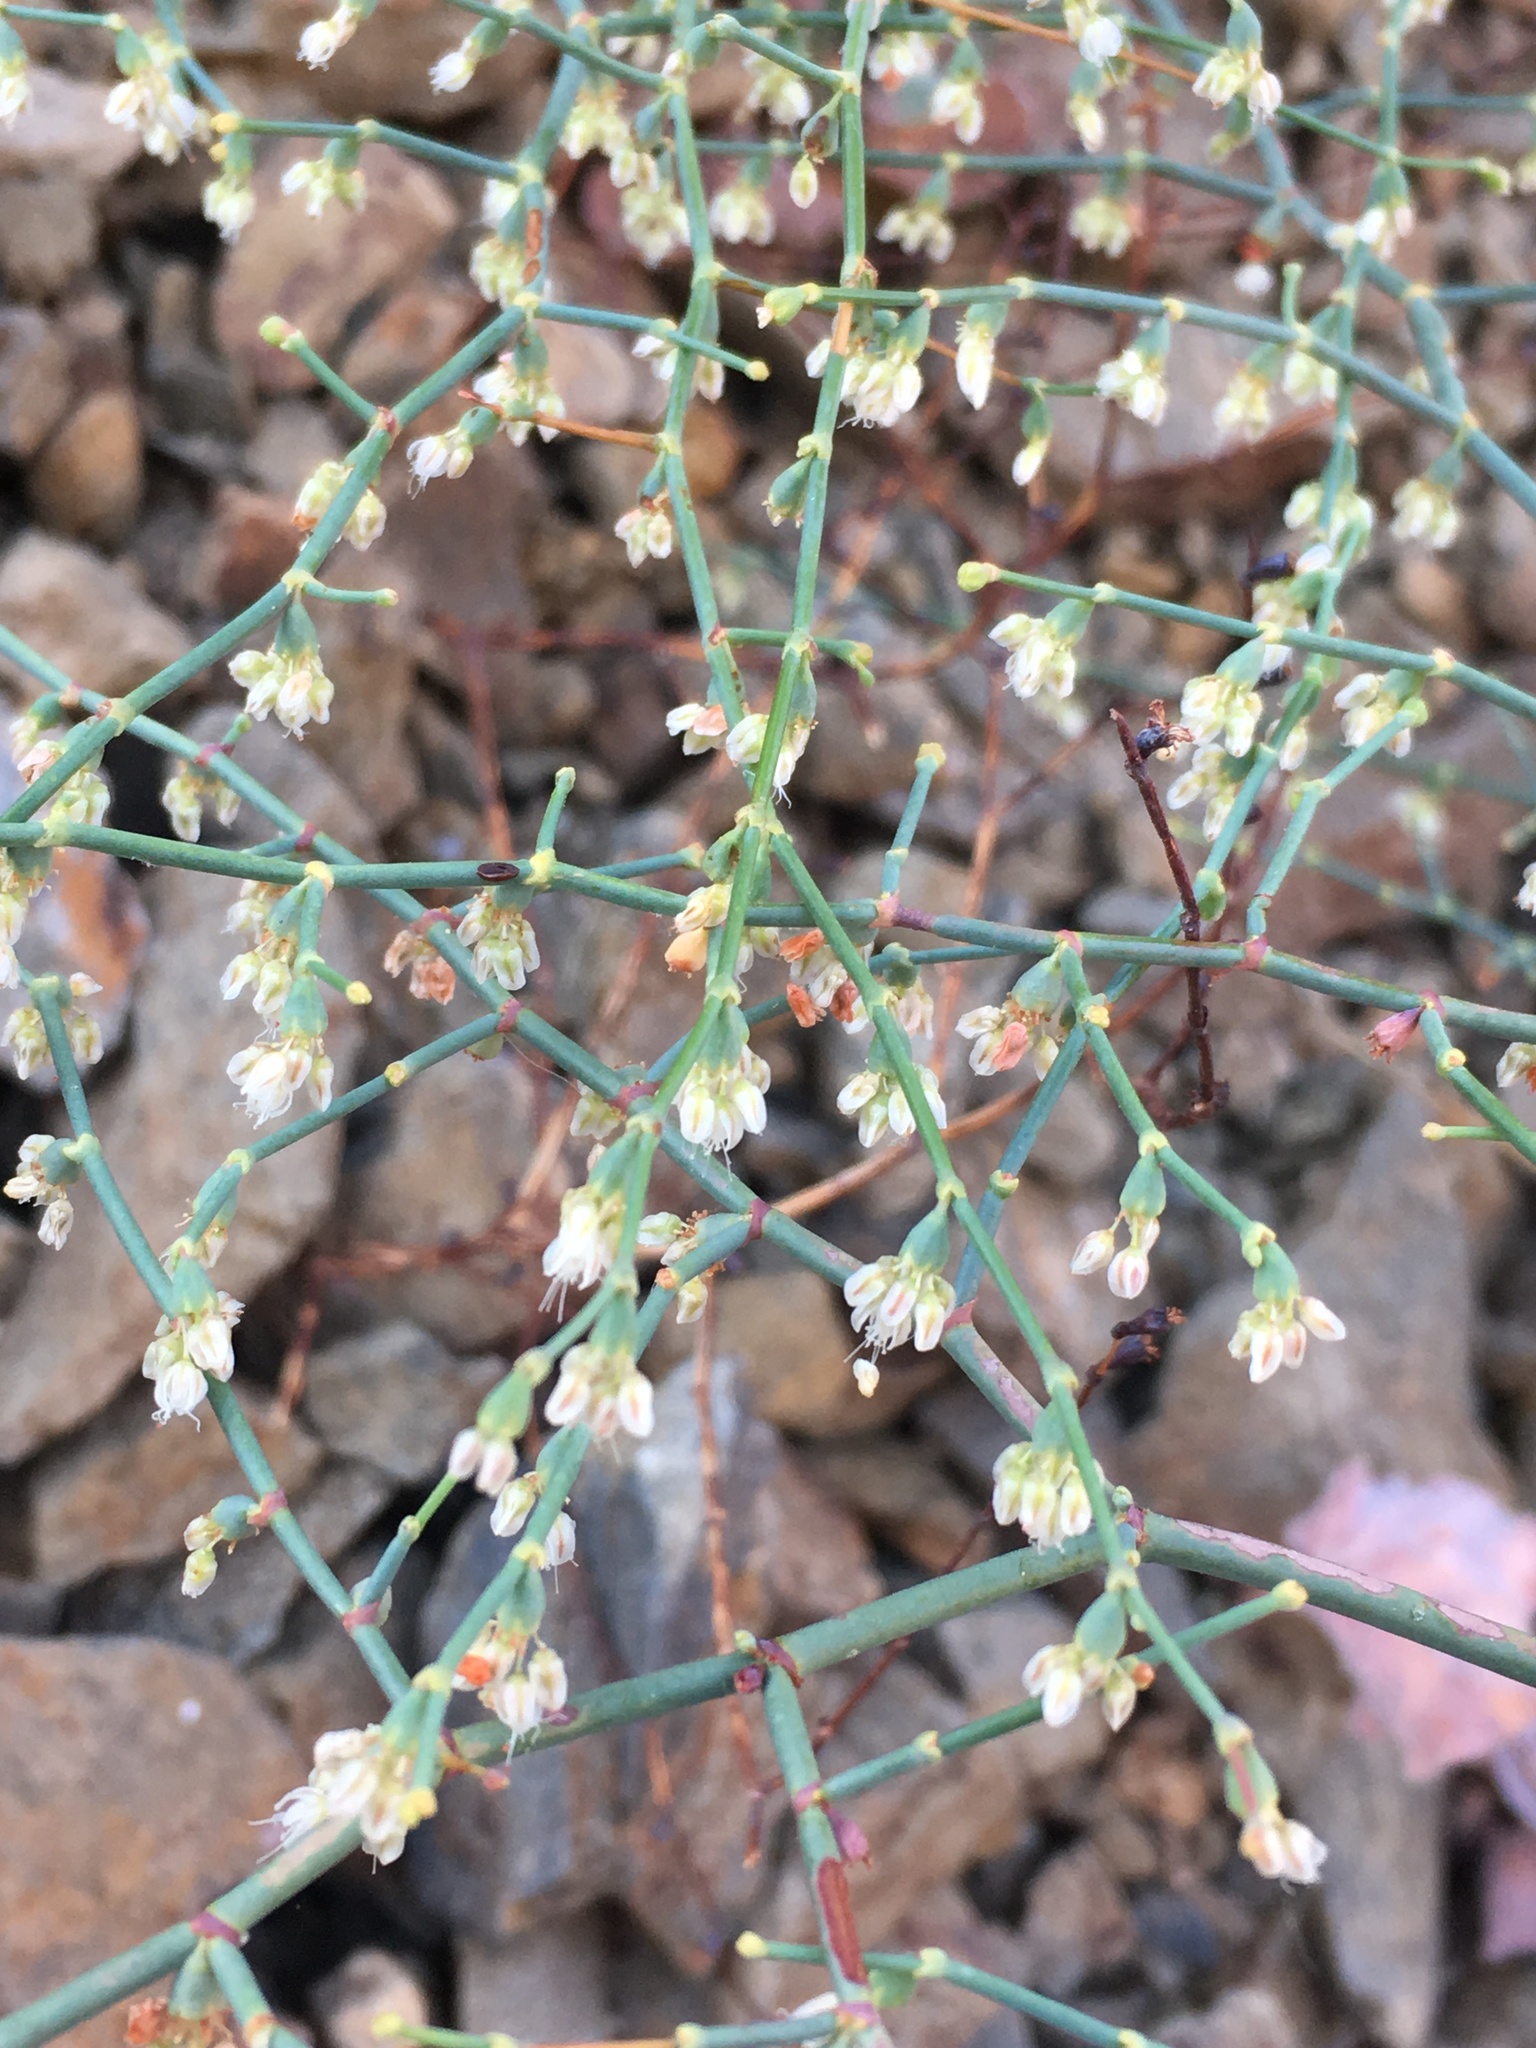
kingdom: Plantae
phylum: Tracheophyta
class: Magnoliopsida
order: Caryophyllales
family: Polygonaceae
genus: Eriogonum
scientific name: Eriogonum deflexum
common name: Skeleton-weed
